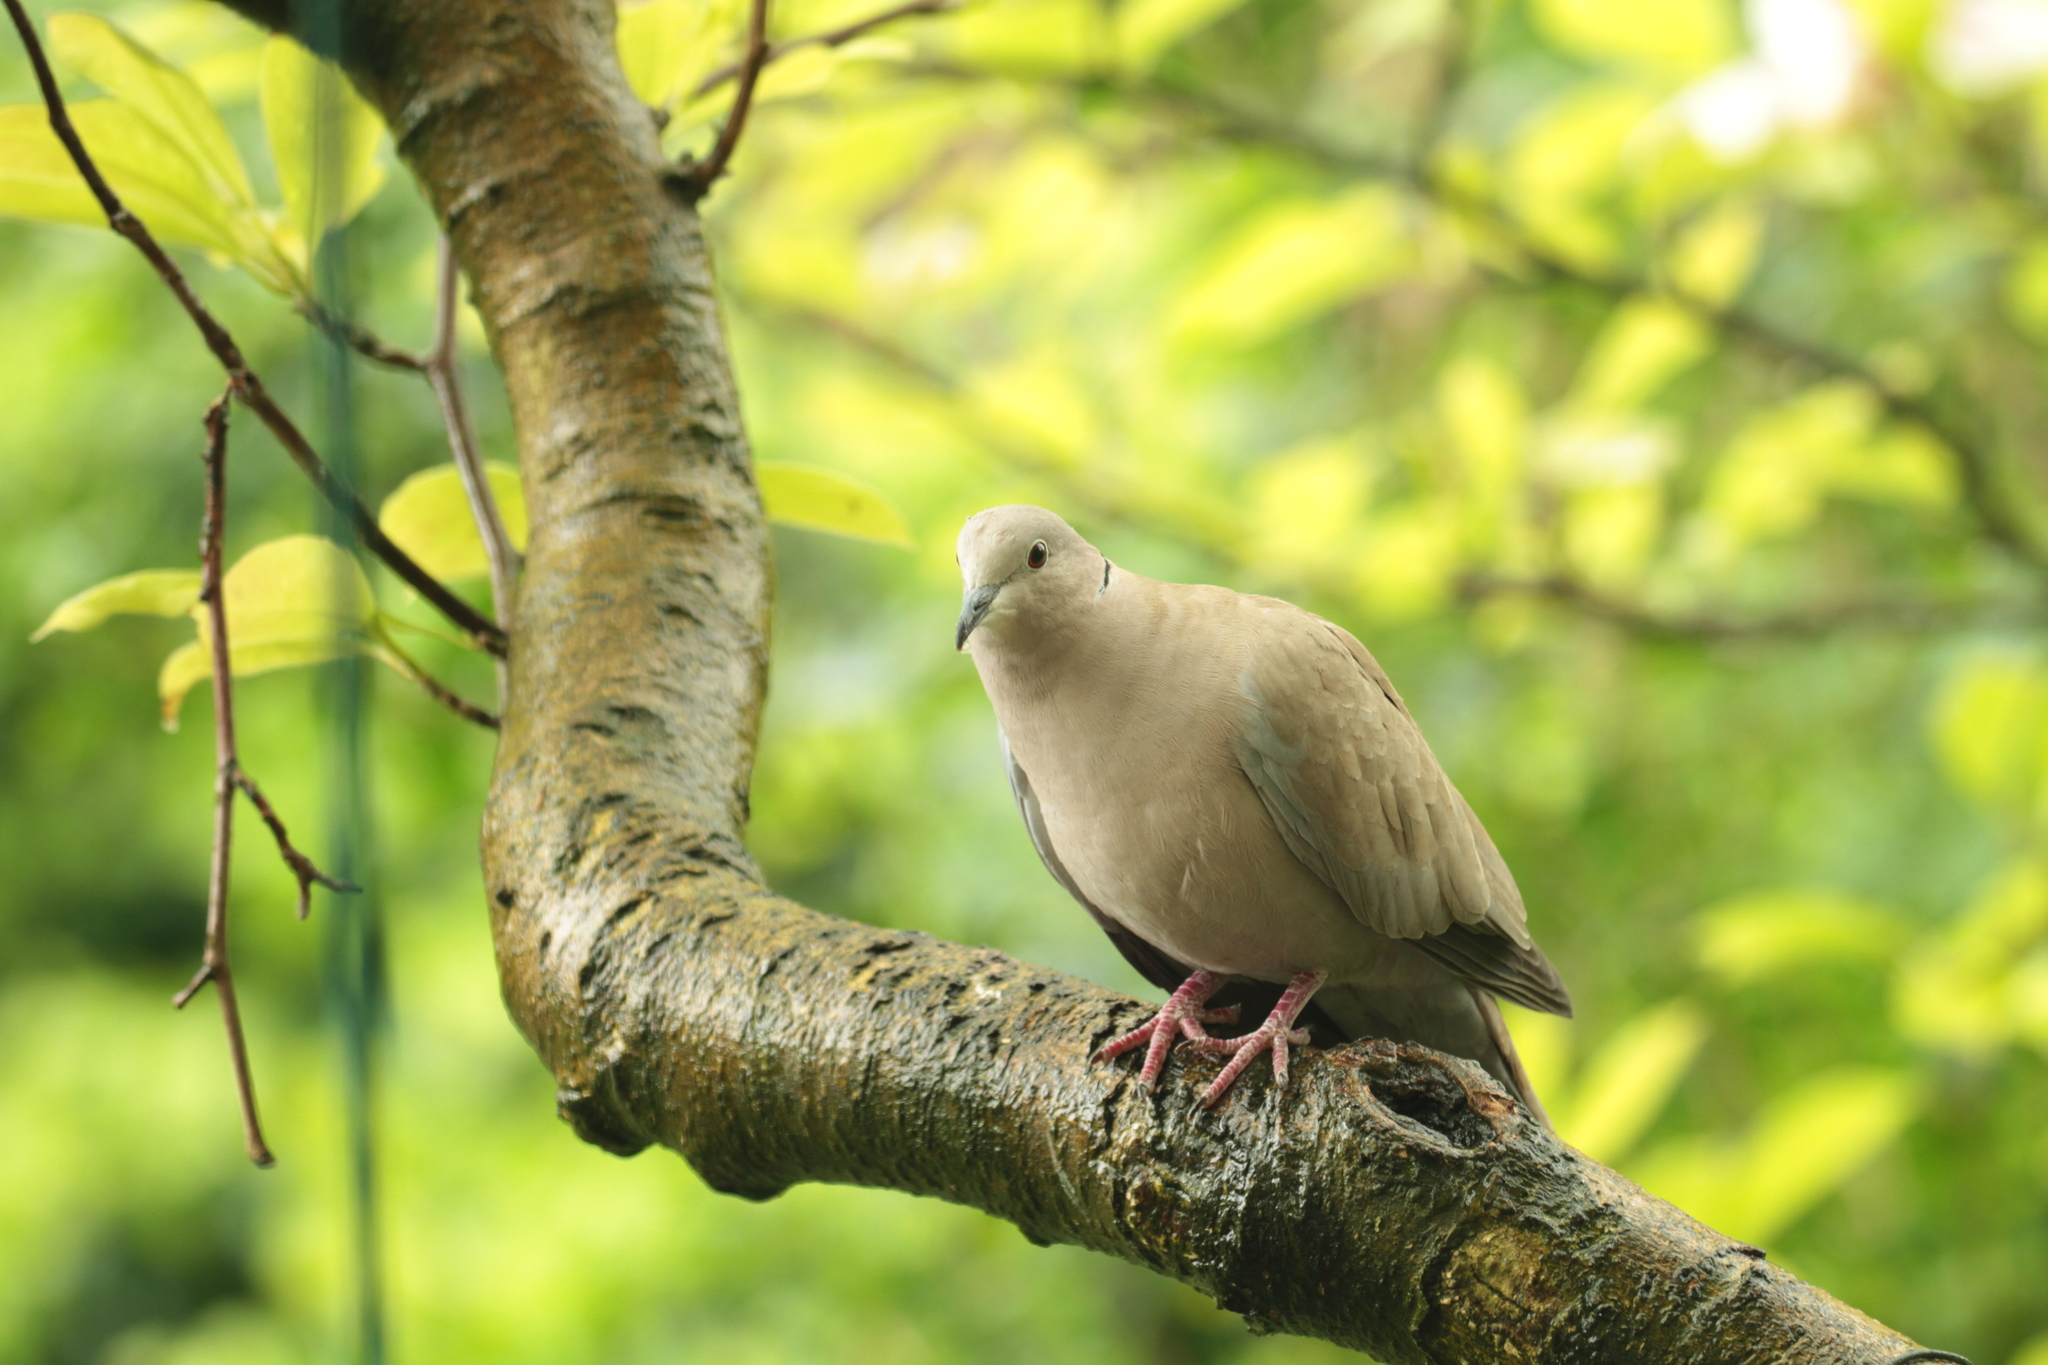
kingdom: Animalia
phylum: Chordata
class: Aves
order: Columbiformes
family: Columbidae
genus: Streptopelia
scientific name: Streptopelia decaocto
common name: Eurasian collared dove
